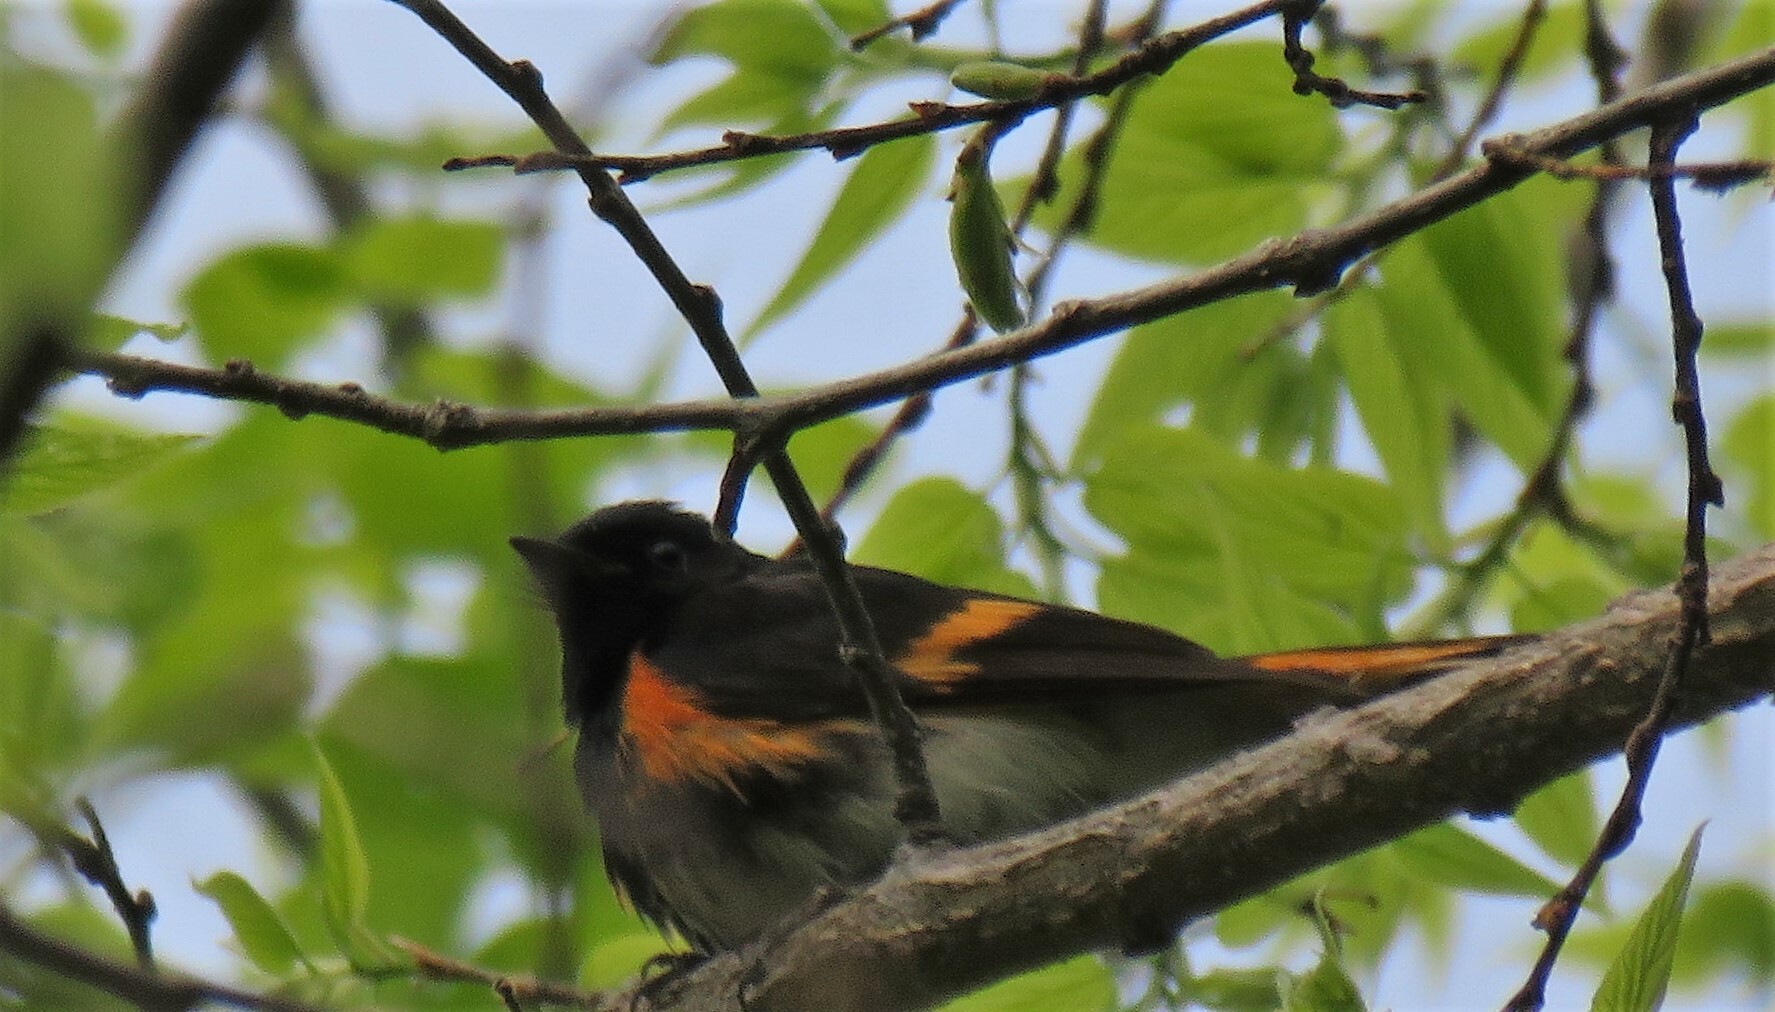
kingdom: Animalia
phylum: Chordata
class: Aves
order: Passeriformes
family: Parulidae
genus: Setophaga
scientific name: Setophaga ruticilla
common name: American redstart
